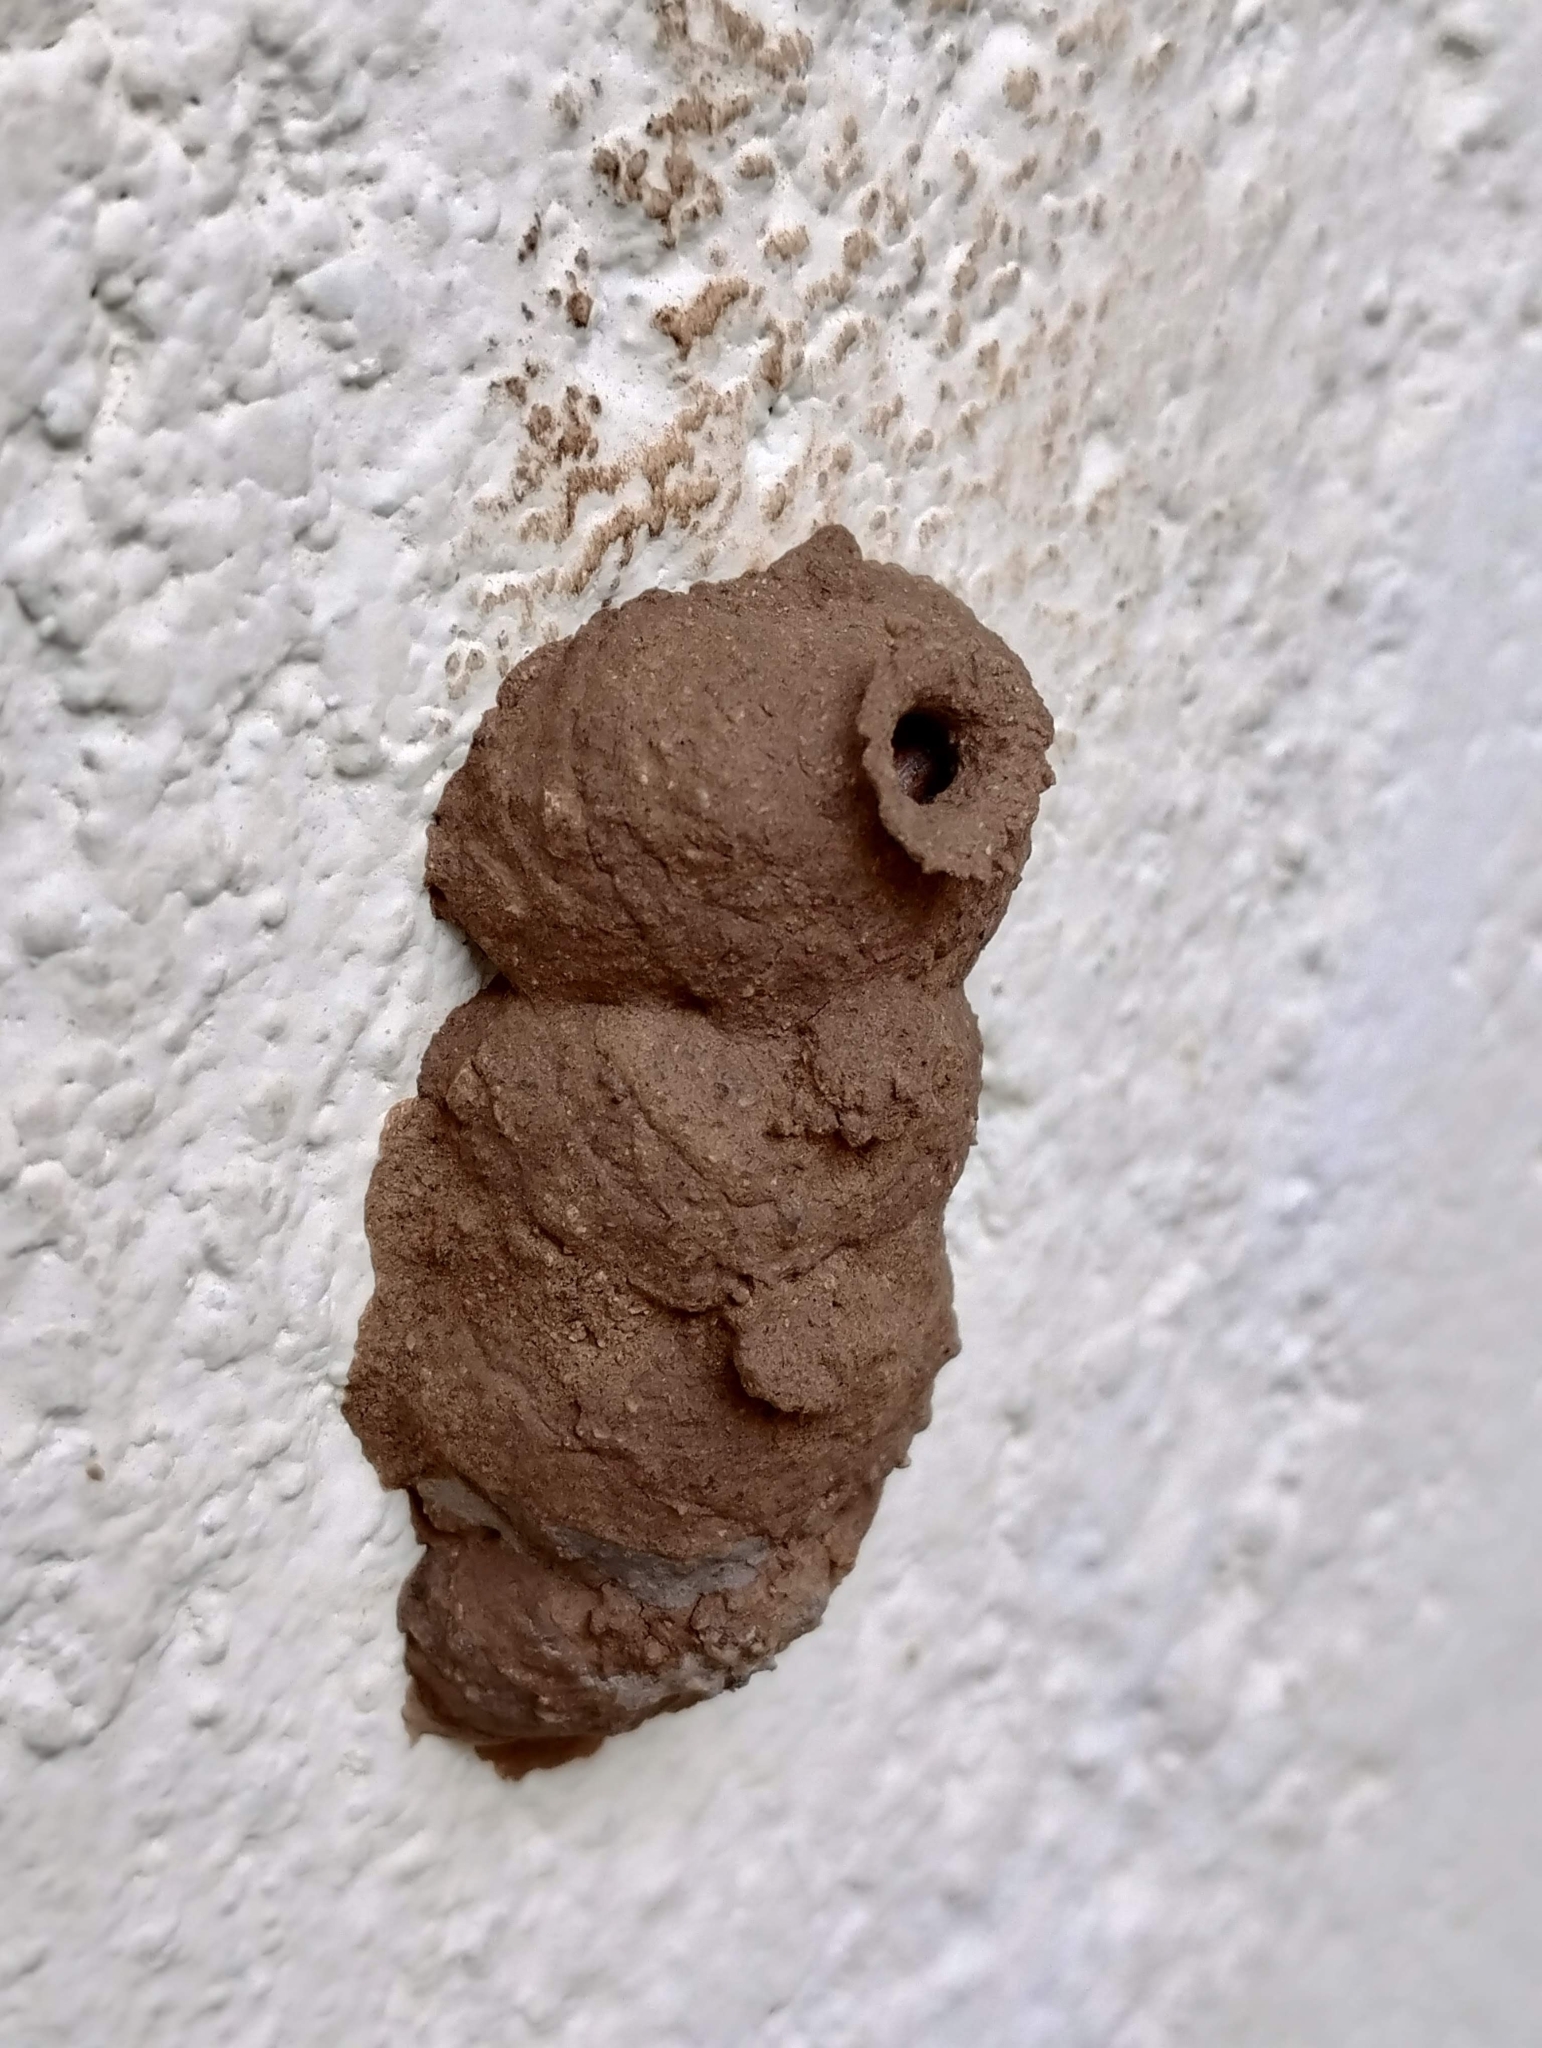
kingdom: Animalia
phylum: Arthropoda
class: Insecta
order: Hymenoptera
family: Eumenidae
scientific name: Eumenidae
